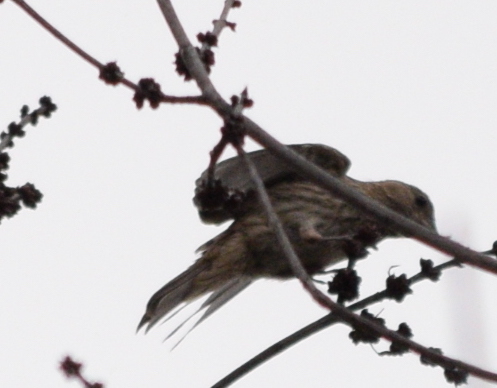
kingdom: Animalia
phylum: Chordata
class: Aves
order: Passeriformes
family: Fringillidae
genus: Haemorhous
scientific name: Haemorhous mexicanus
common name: House finch
